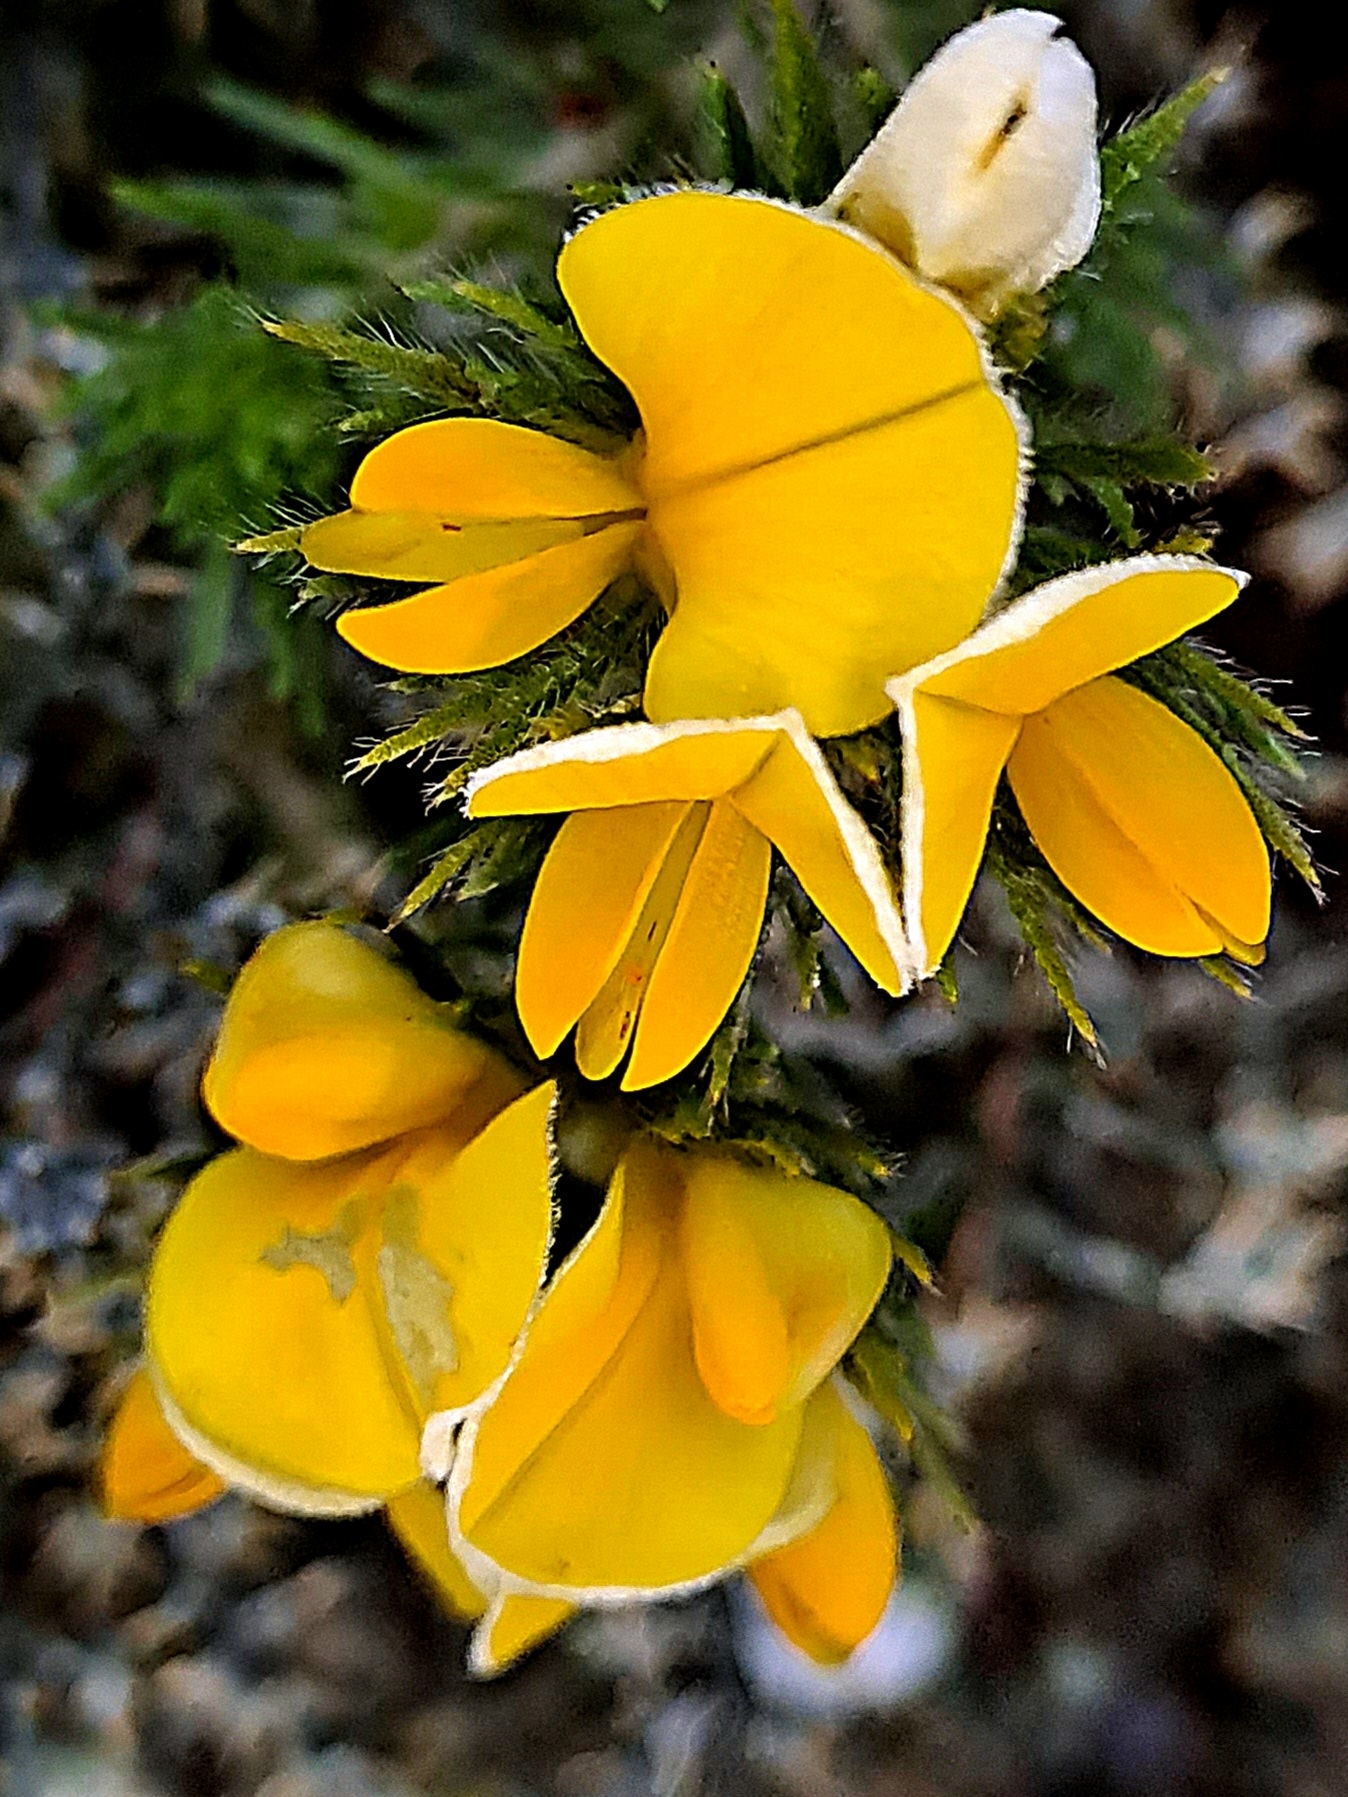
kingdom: Plantae
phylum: Tracheophyta
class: Magnoliopsida
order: Fabales
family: Fabaceae
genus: Aspalathus
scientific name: Aspalathus ciliaris
